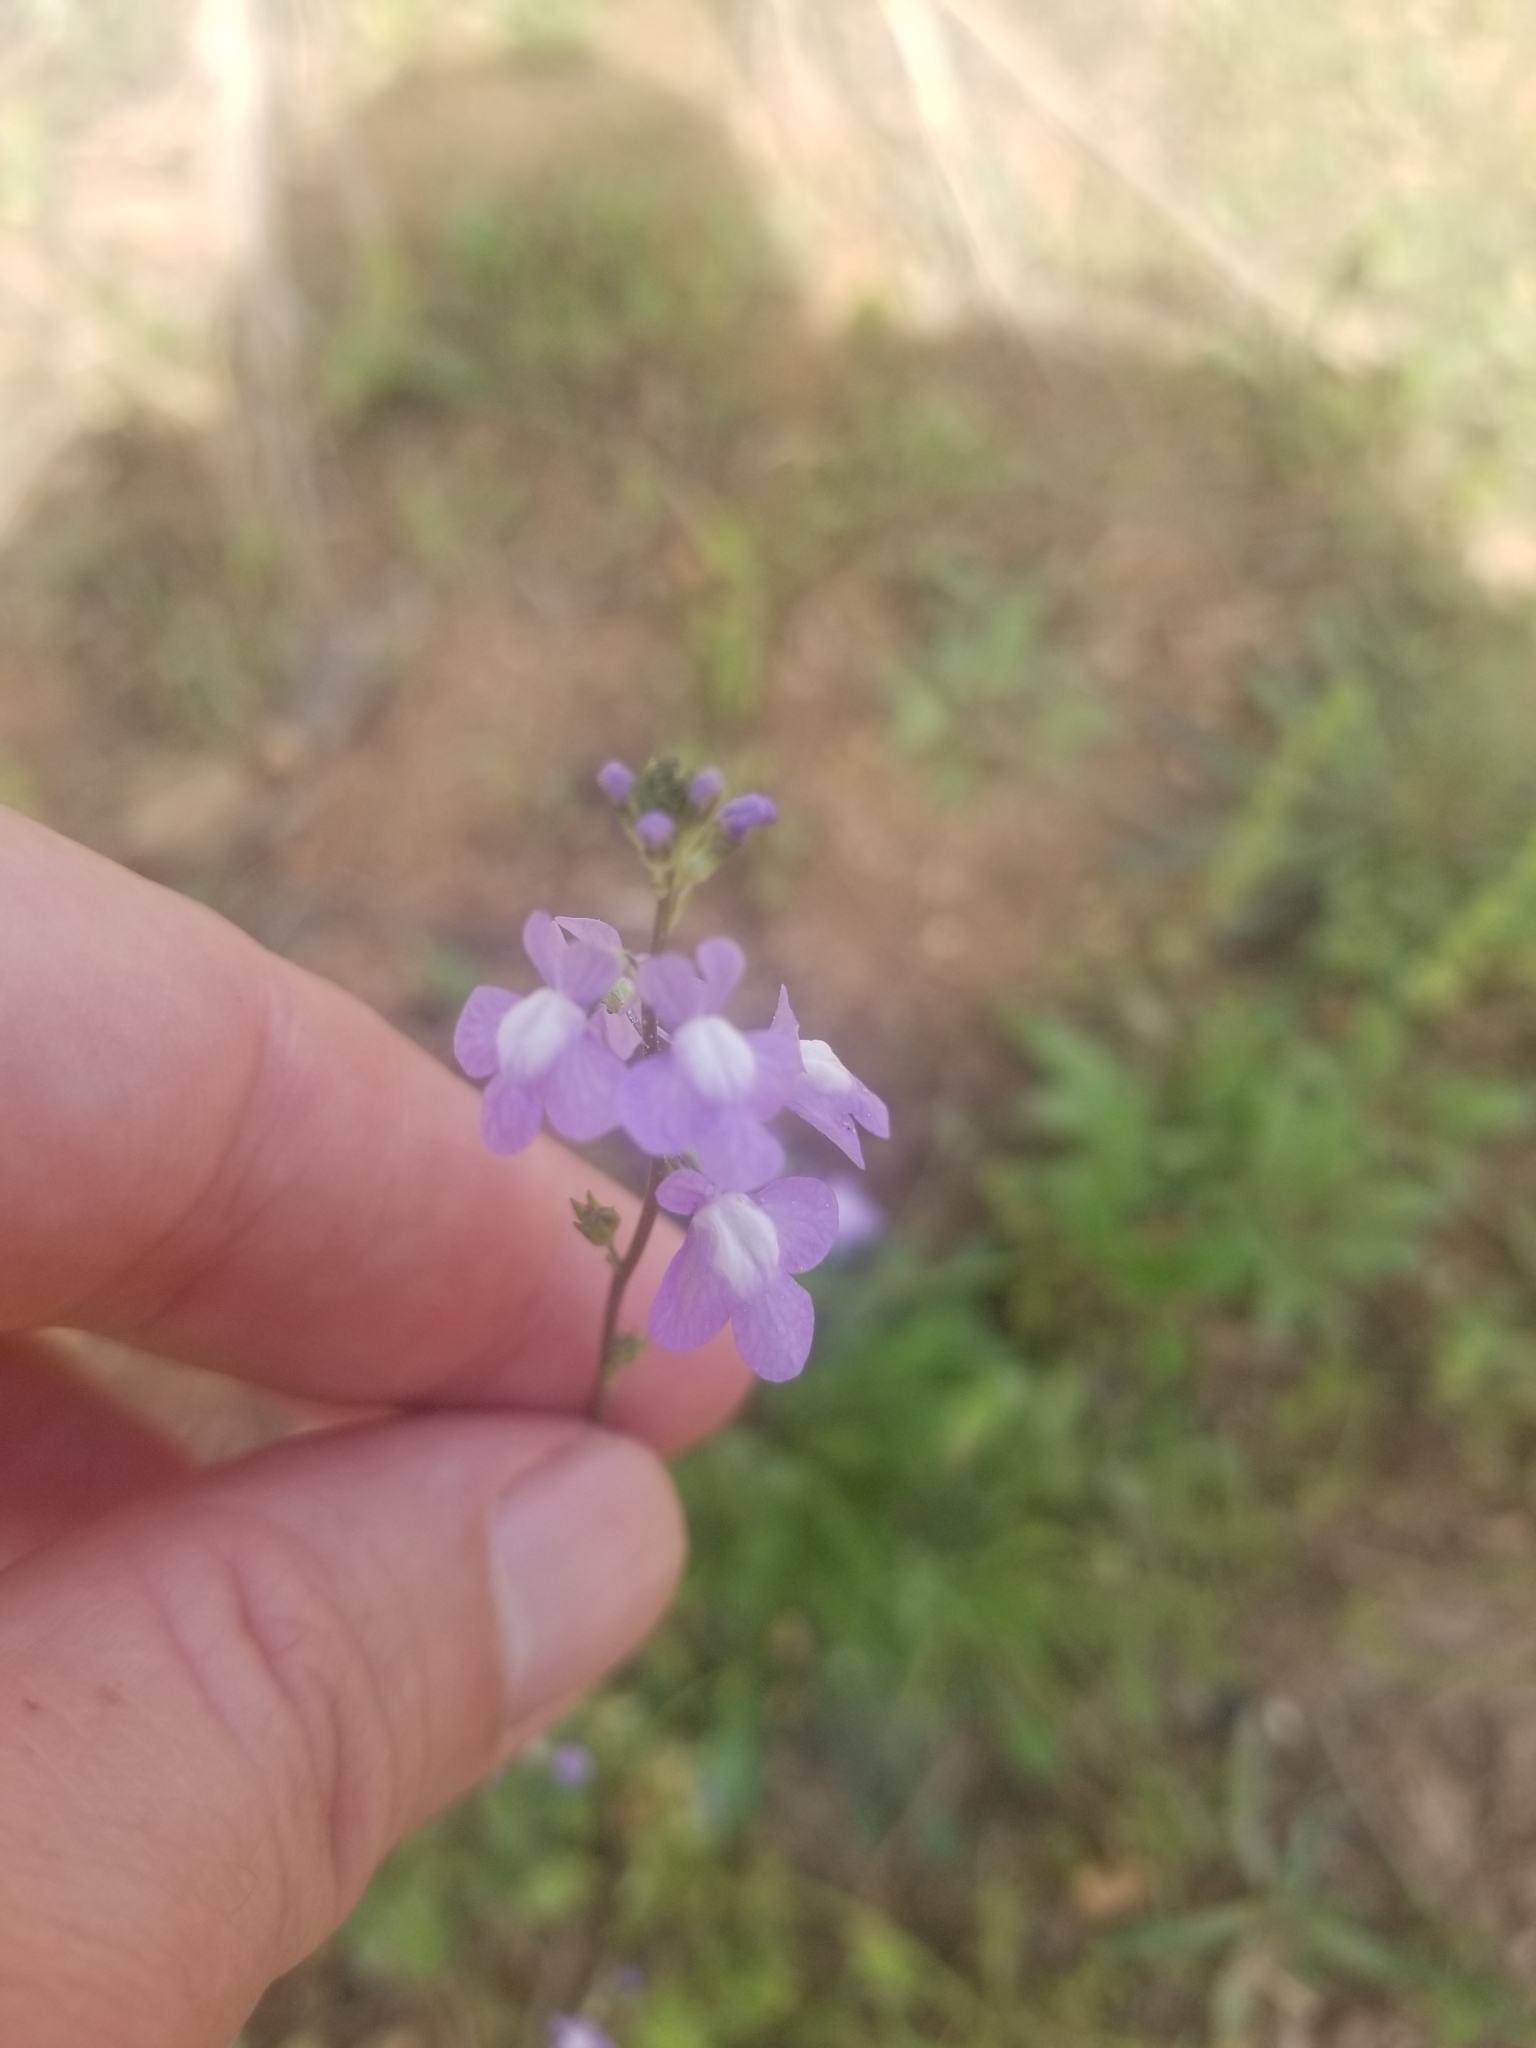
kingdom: Plantae
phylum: Tracheophyta
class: Magnoliopsida
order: Lamiales
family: Plantaginaceae
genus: Nuttallanthus
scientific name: Nuttallanthus canadensis
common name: Blue toadflax
